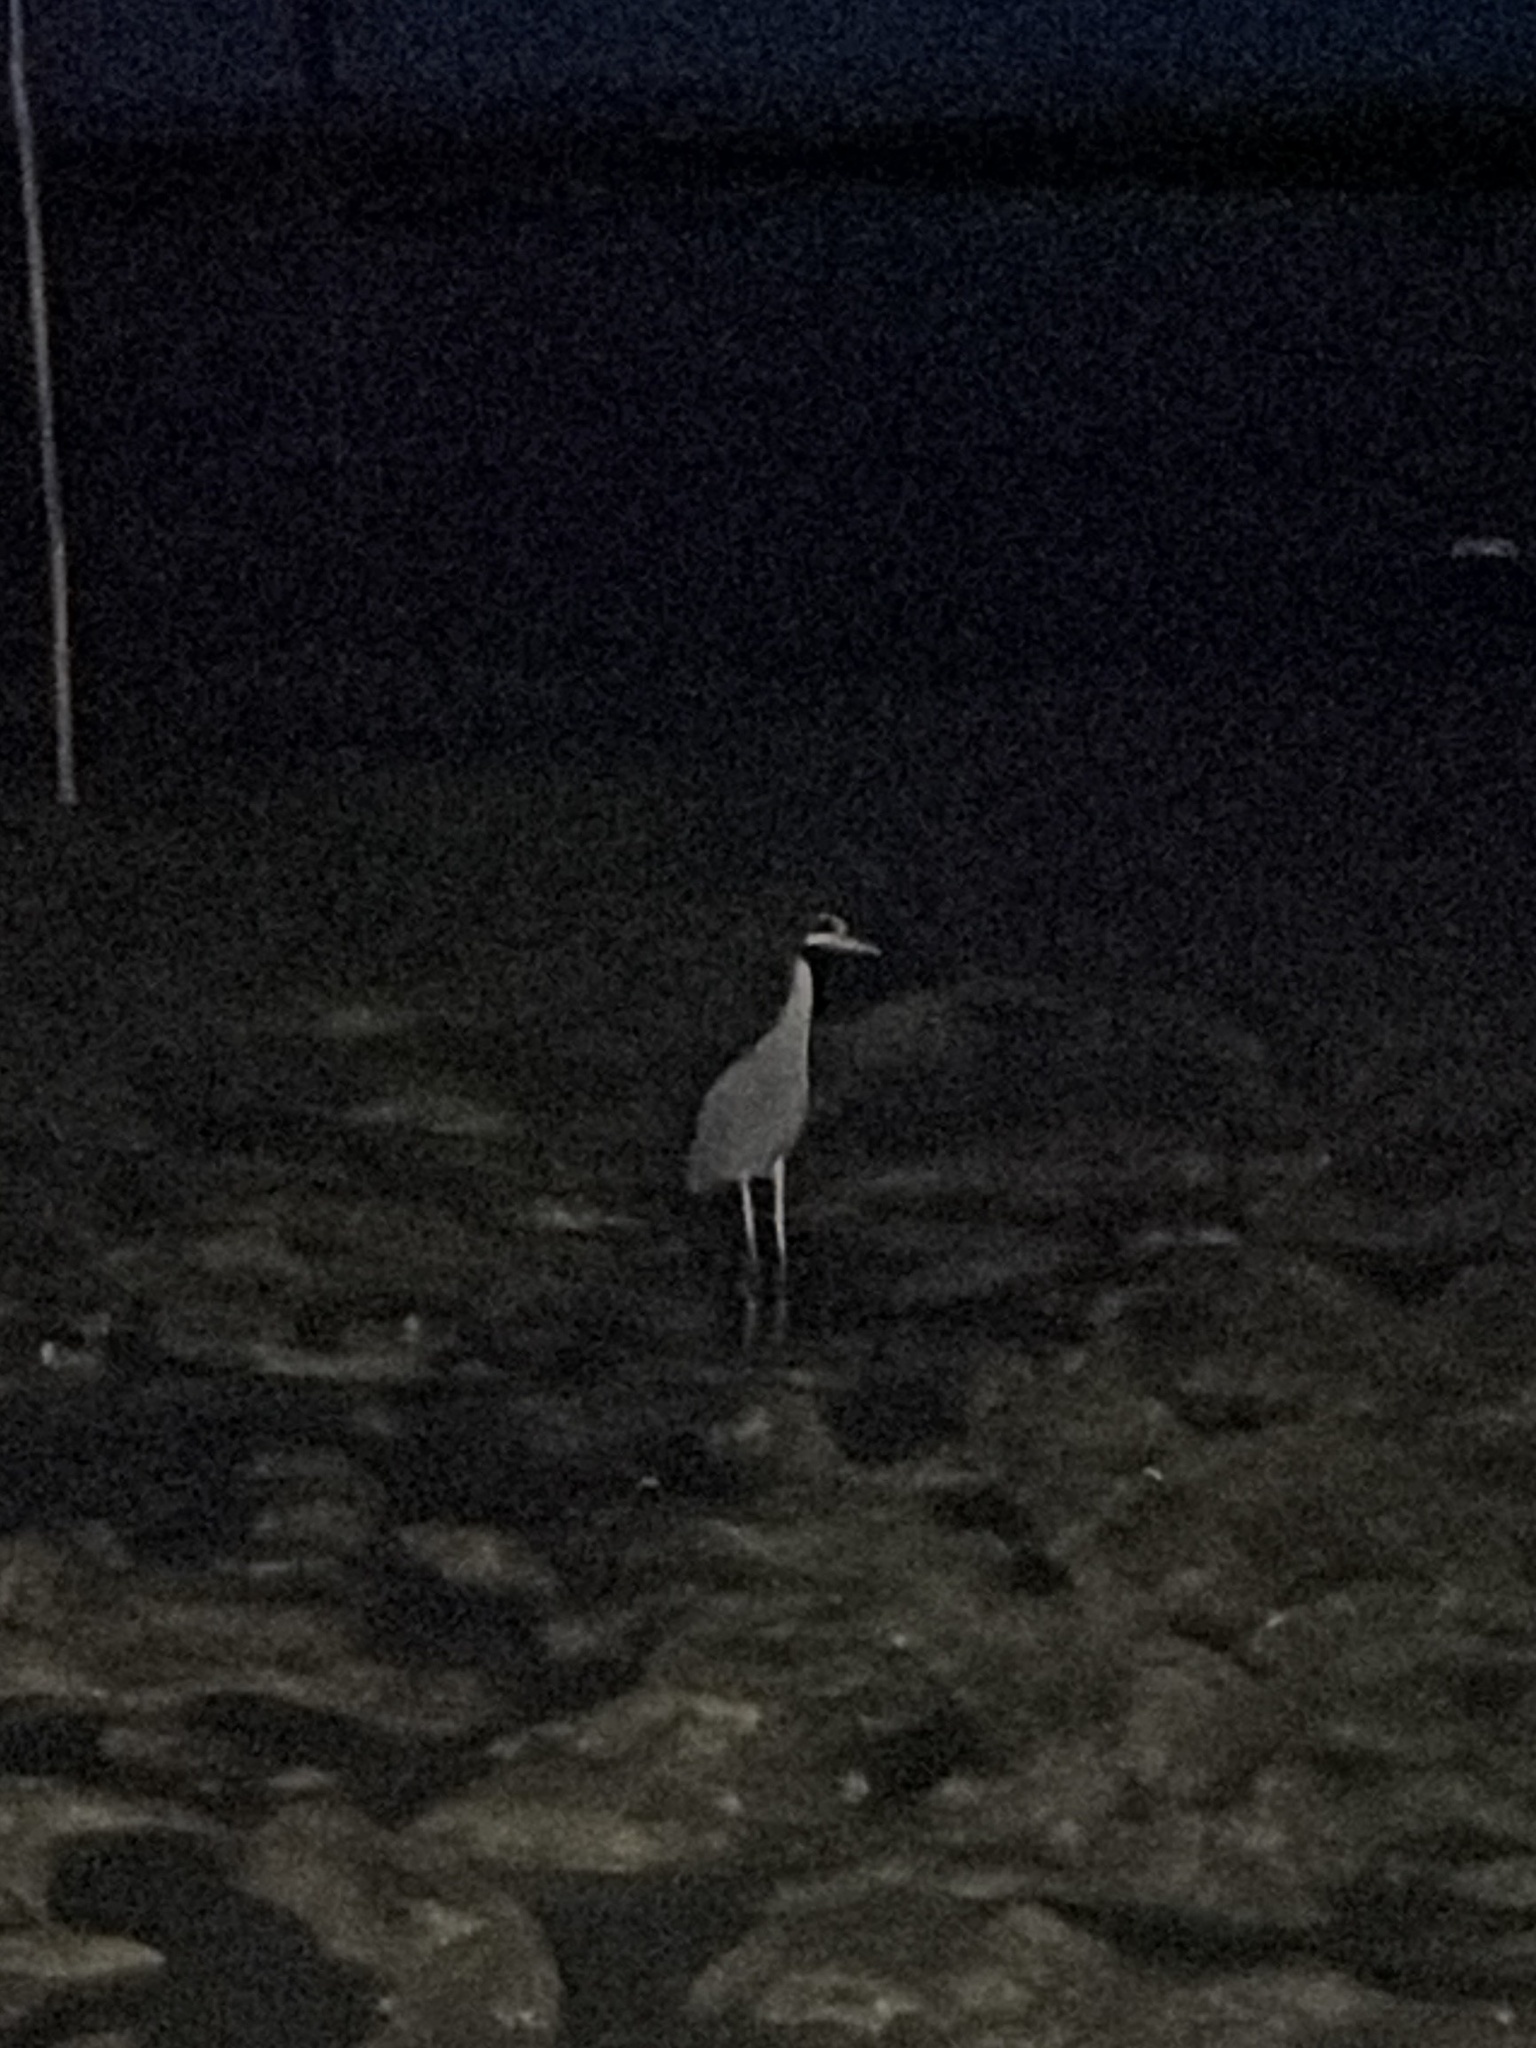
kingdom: Animalia
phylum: Chordata
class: Aves
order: Pelecaniformes
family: Ardeidae
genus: Nyctanassa
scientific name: Nyctanassa violacea
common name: Yellow-crowned night heron
